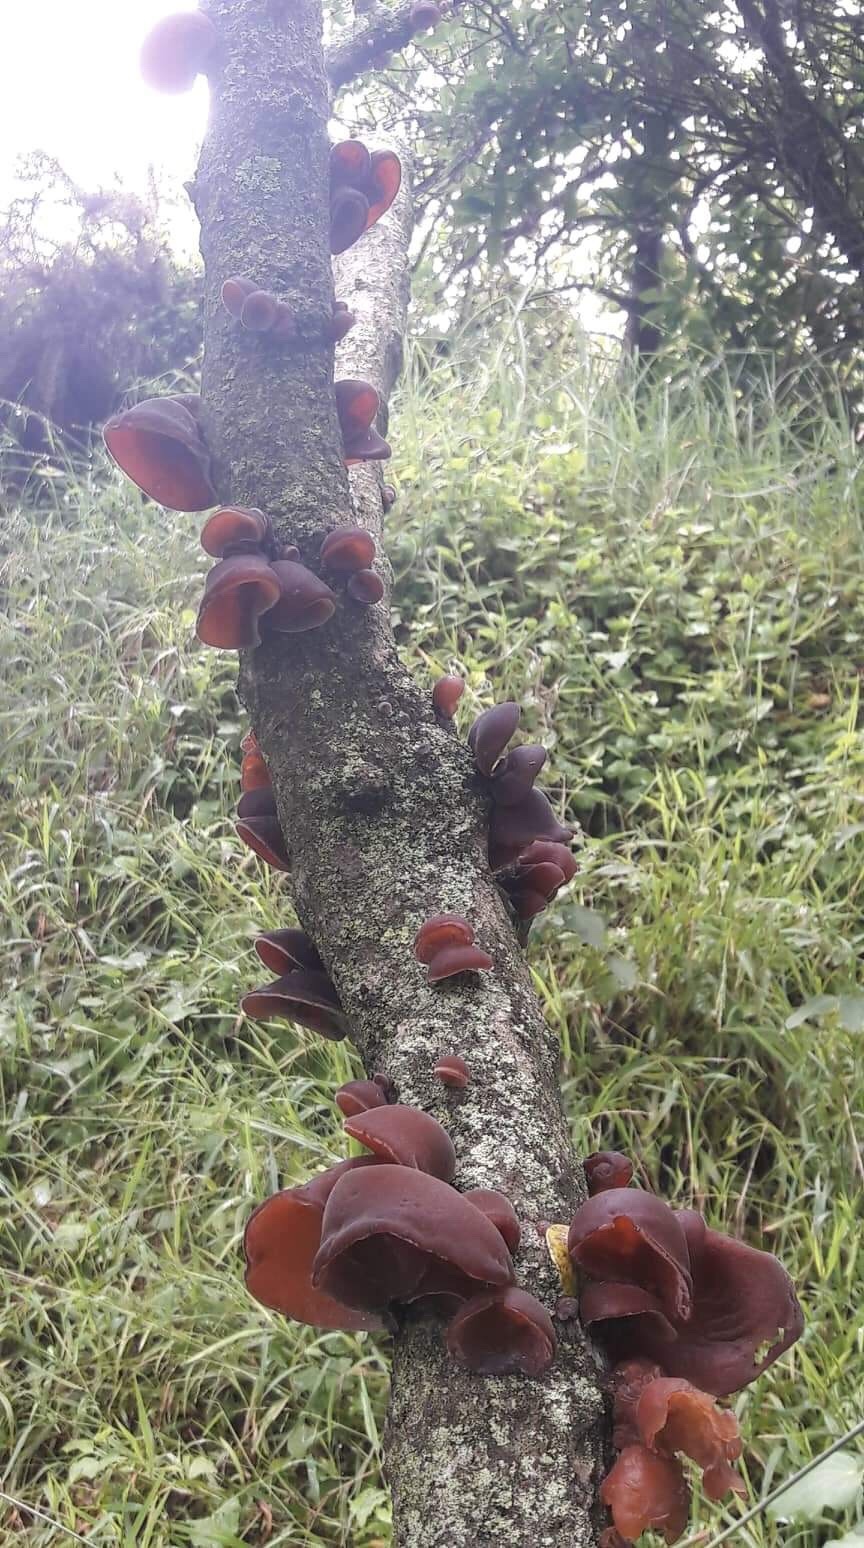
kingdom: Fungi
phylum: Basidiomycota
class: Agaricomycetes
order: Auriculariales
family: Auriculariaceae
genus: Auricularia
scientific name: Auricularia cornea
